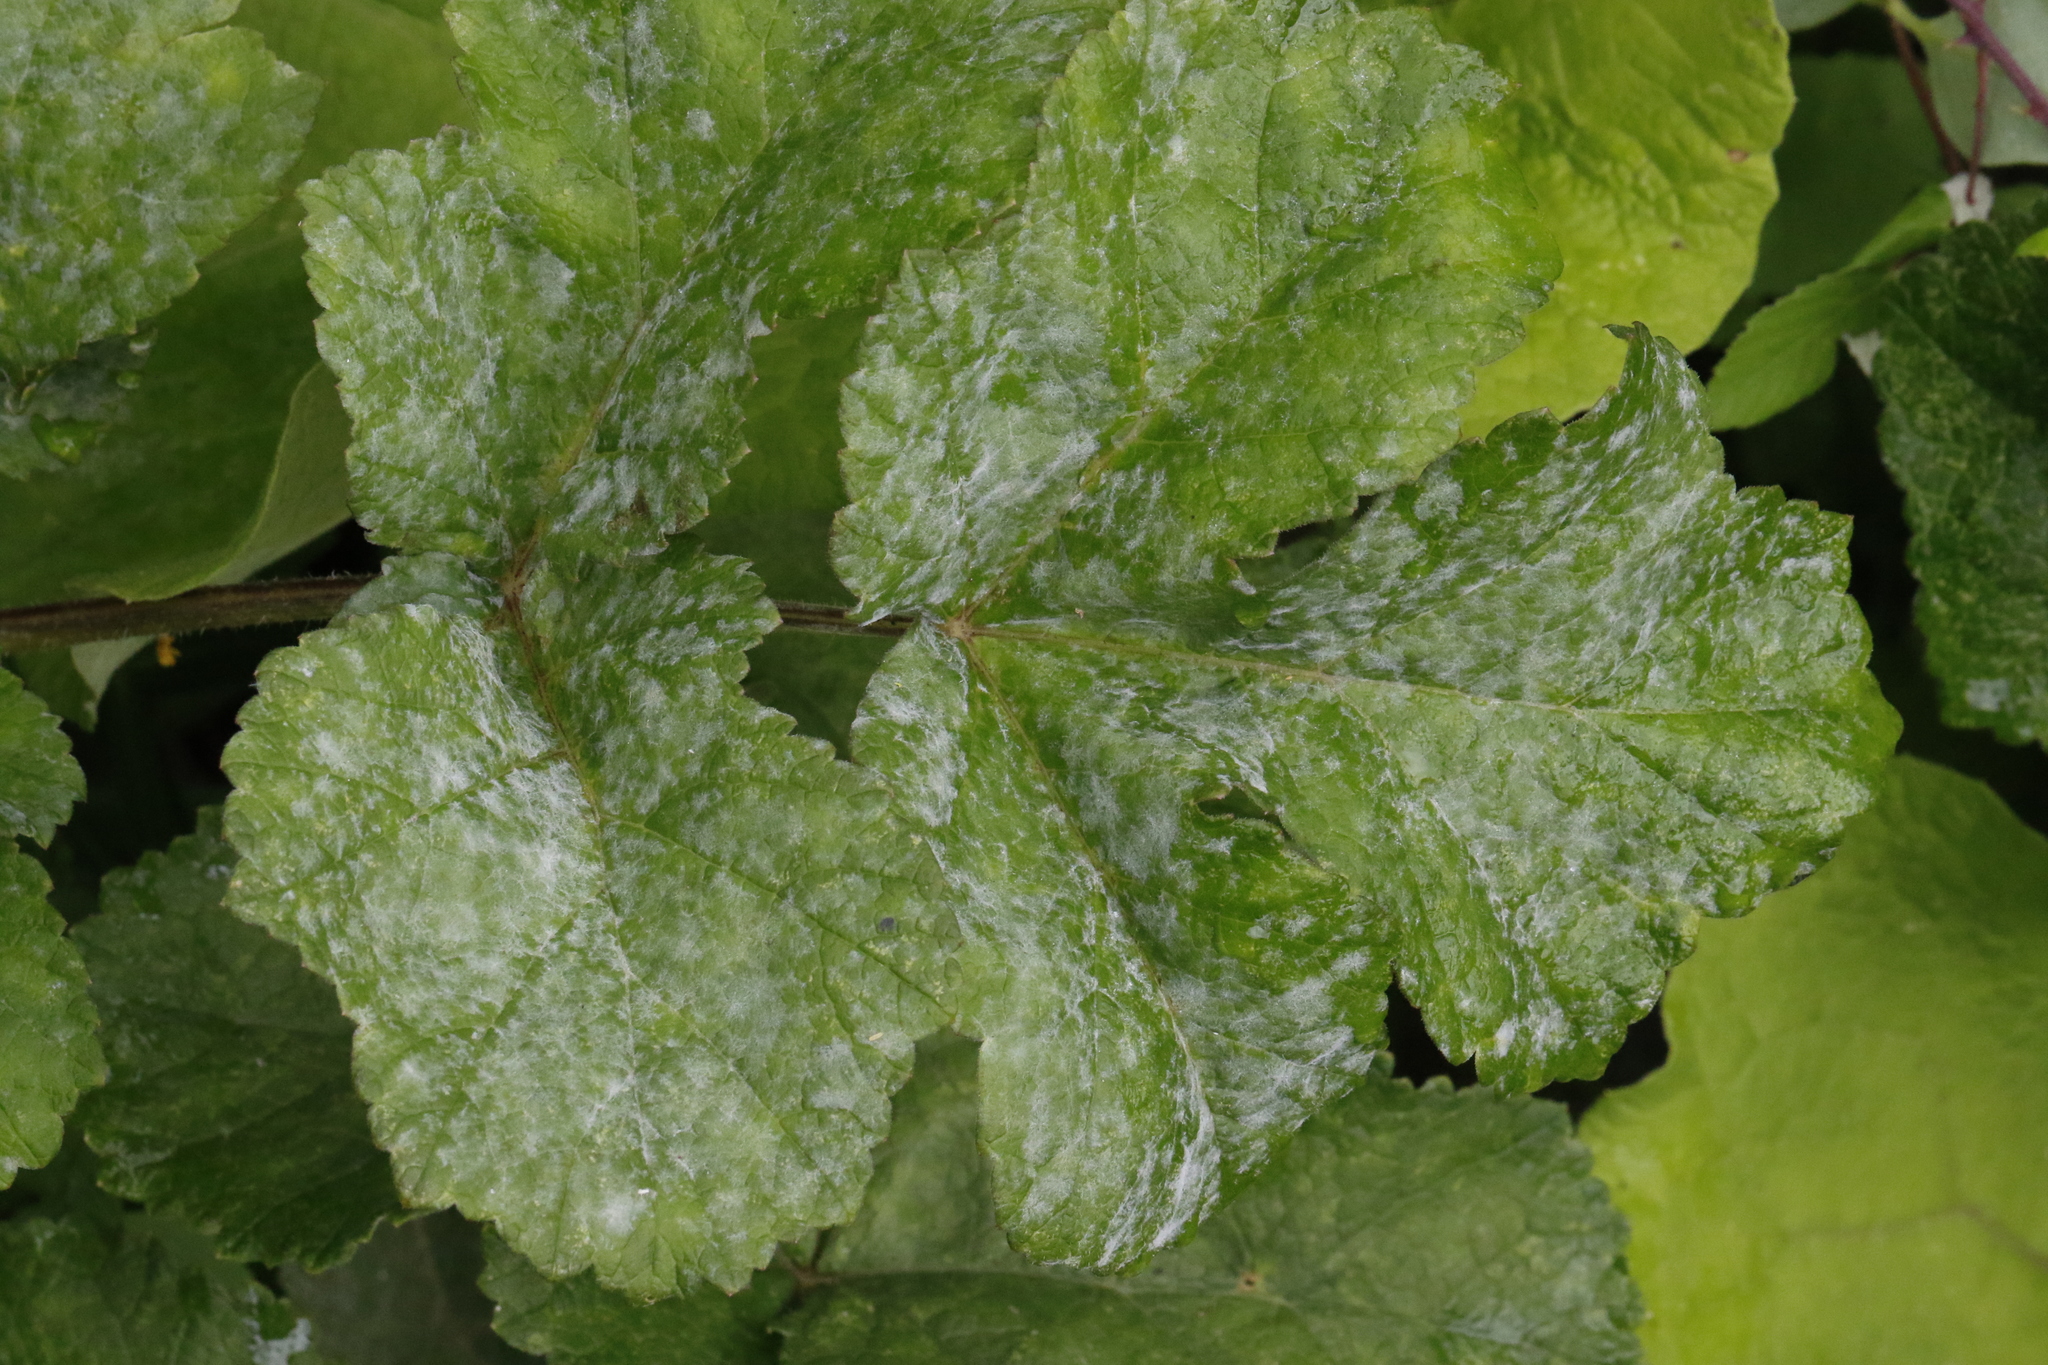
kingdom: Fungi
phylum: Ascomycota
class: Leotiomycetes
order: Helotiales
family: Erysiphaceae
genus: Erysiphe
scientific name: Erysiphe heraclei
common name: Umbellifer mildew
